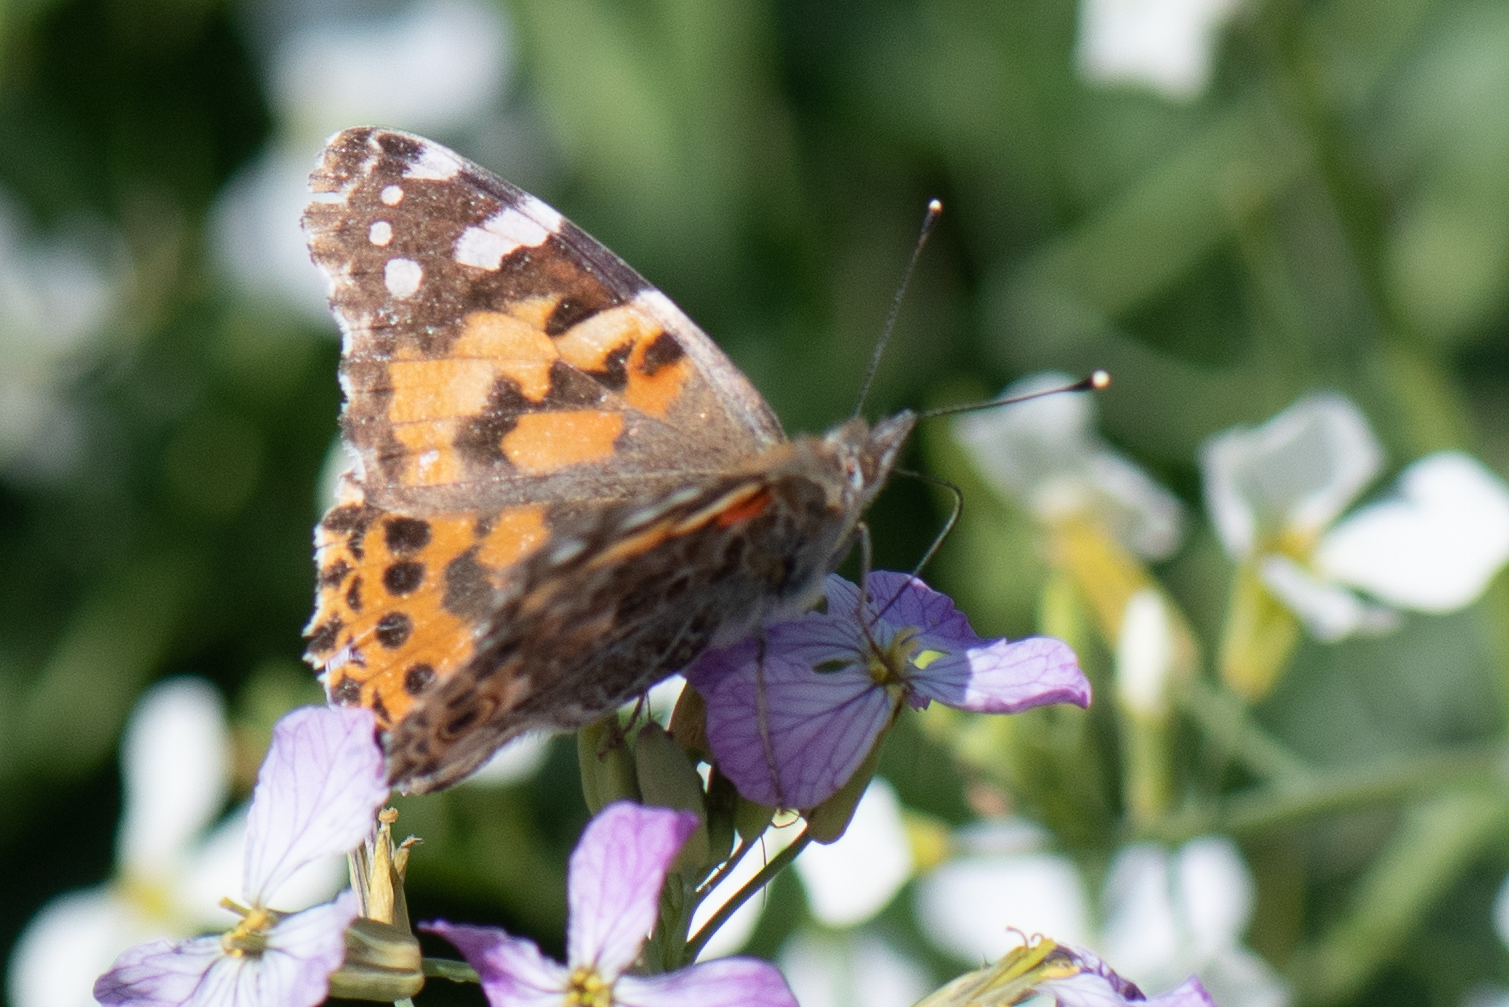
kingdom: Animalia
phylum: Arthropoda
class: Insecta
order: Lepidoptera
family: Nymphalidae
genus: Vanessa
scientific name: Vanessa cardui
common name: Painted lady
